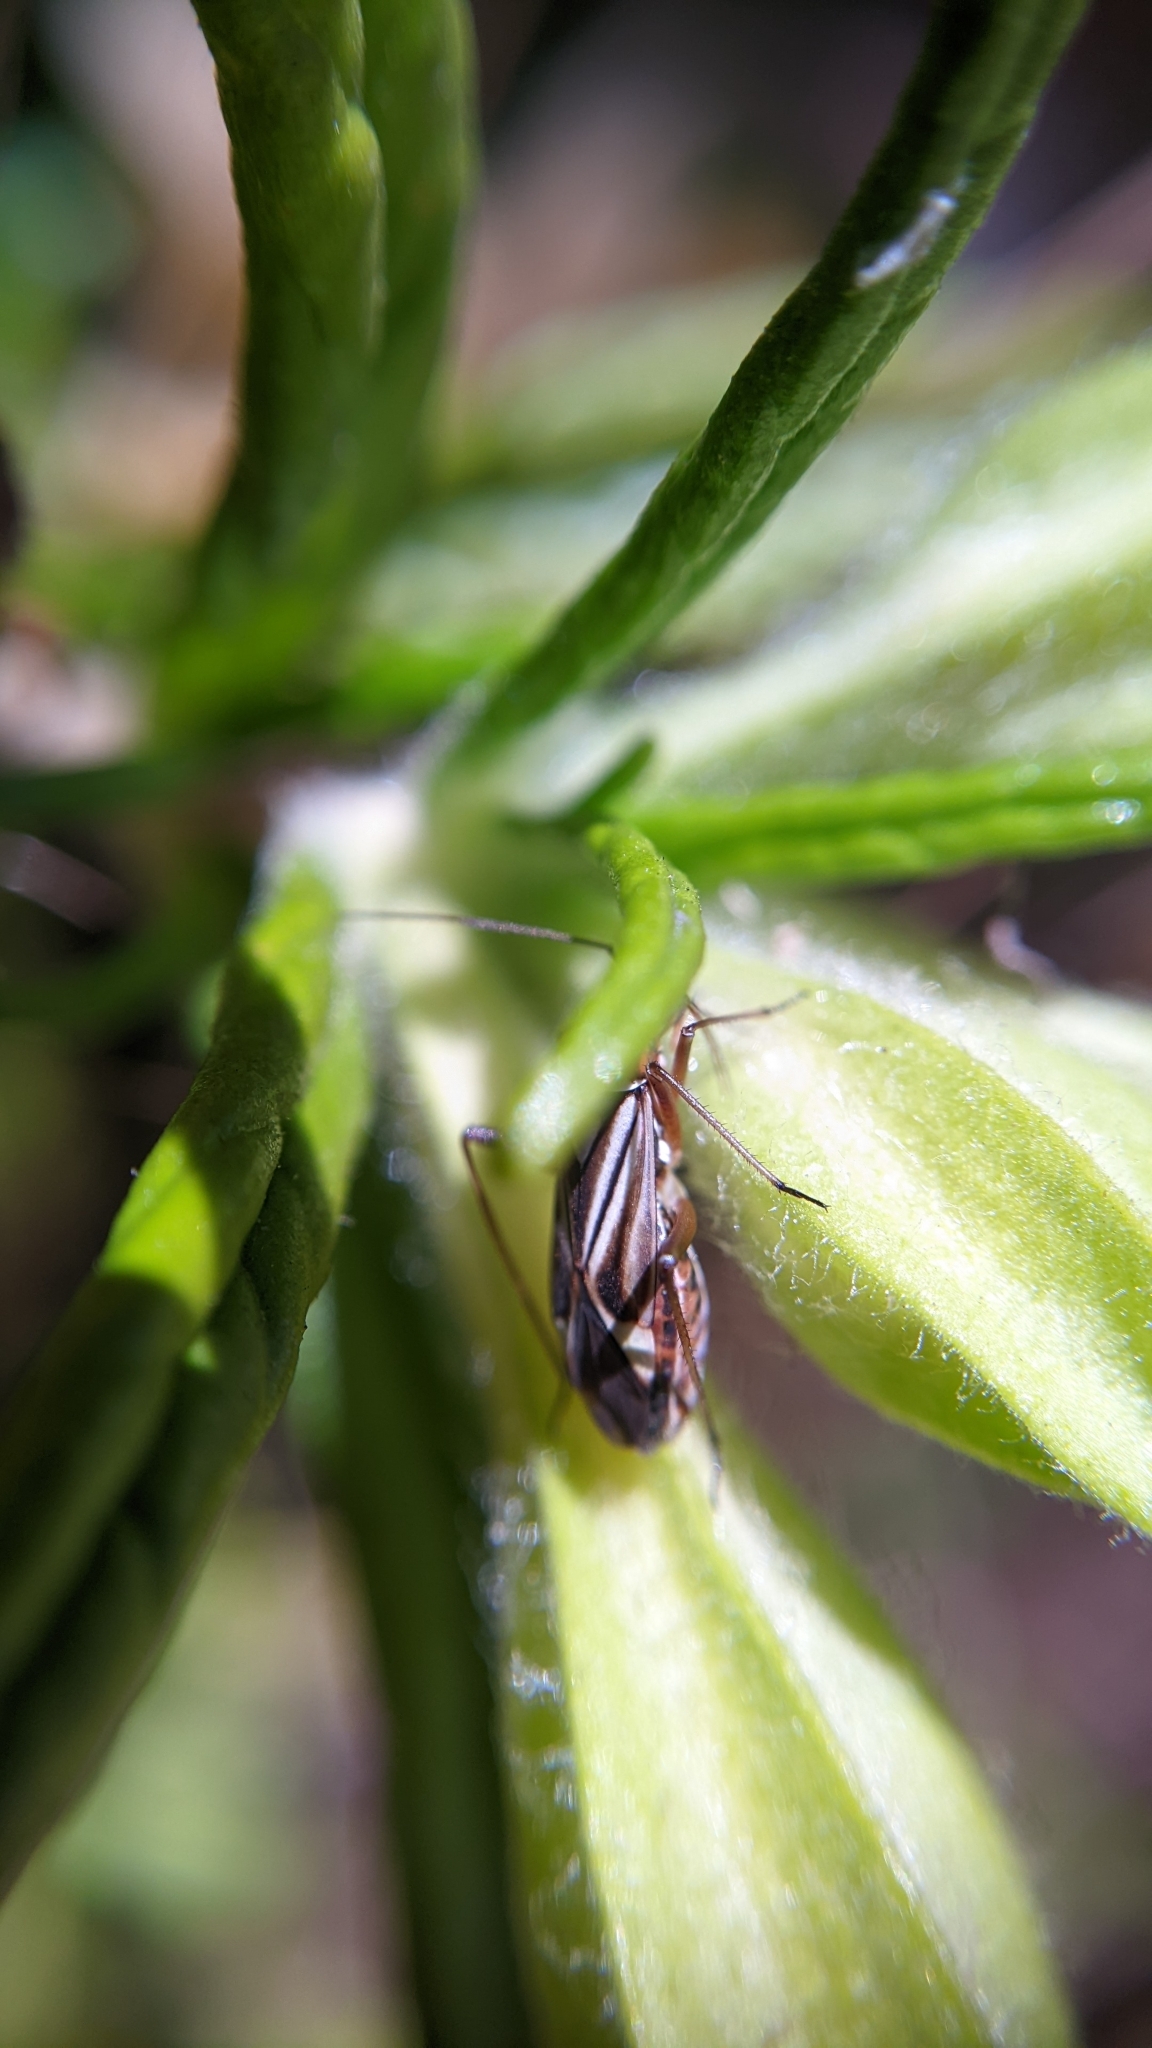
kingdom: Animalia
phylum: Arthropoda
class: Insecta
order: Hemiptera
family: Miridae
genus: Closterocoris
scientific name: Closterocoris amoenus
